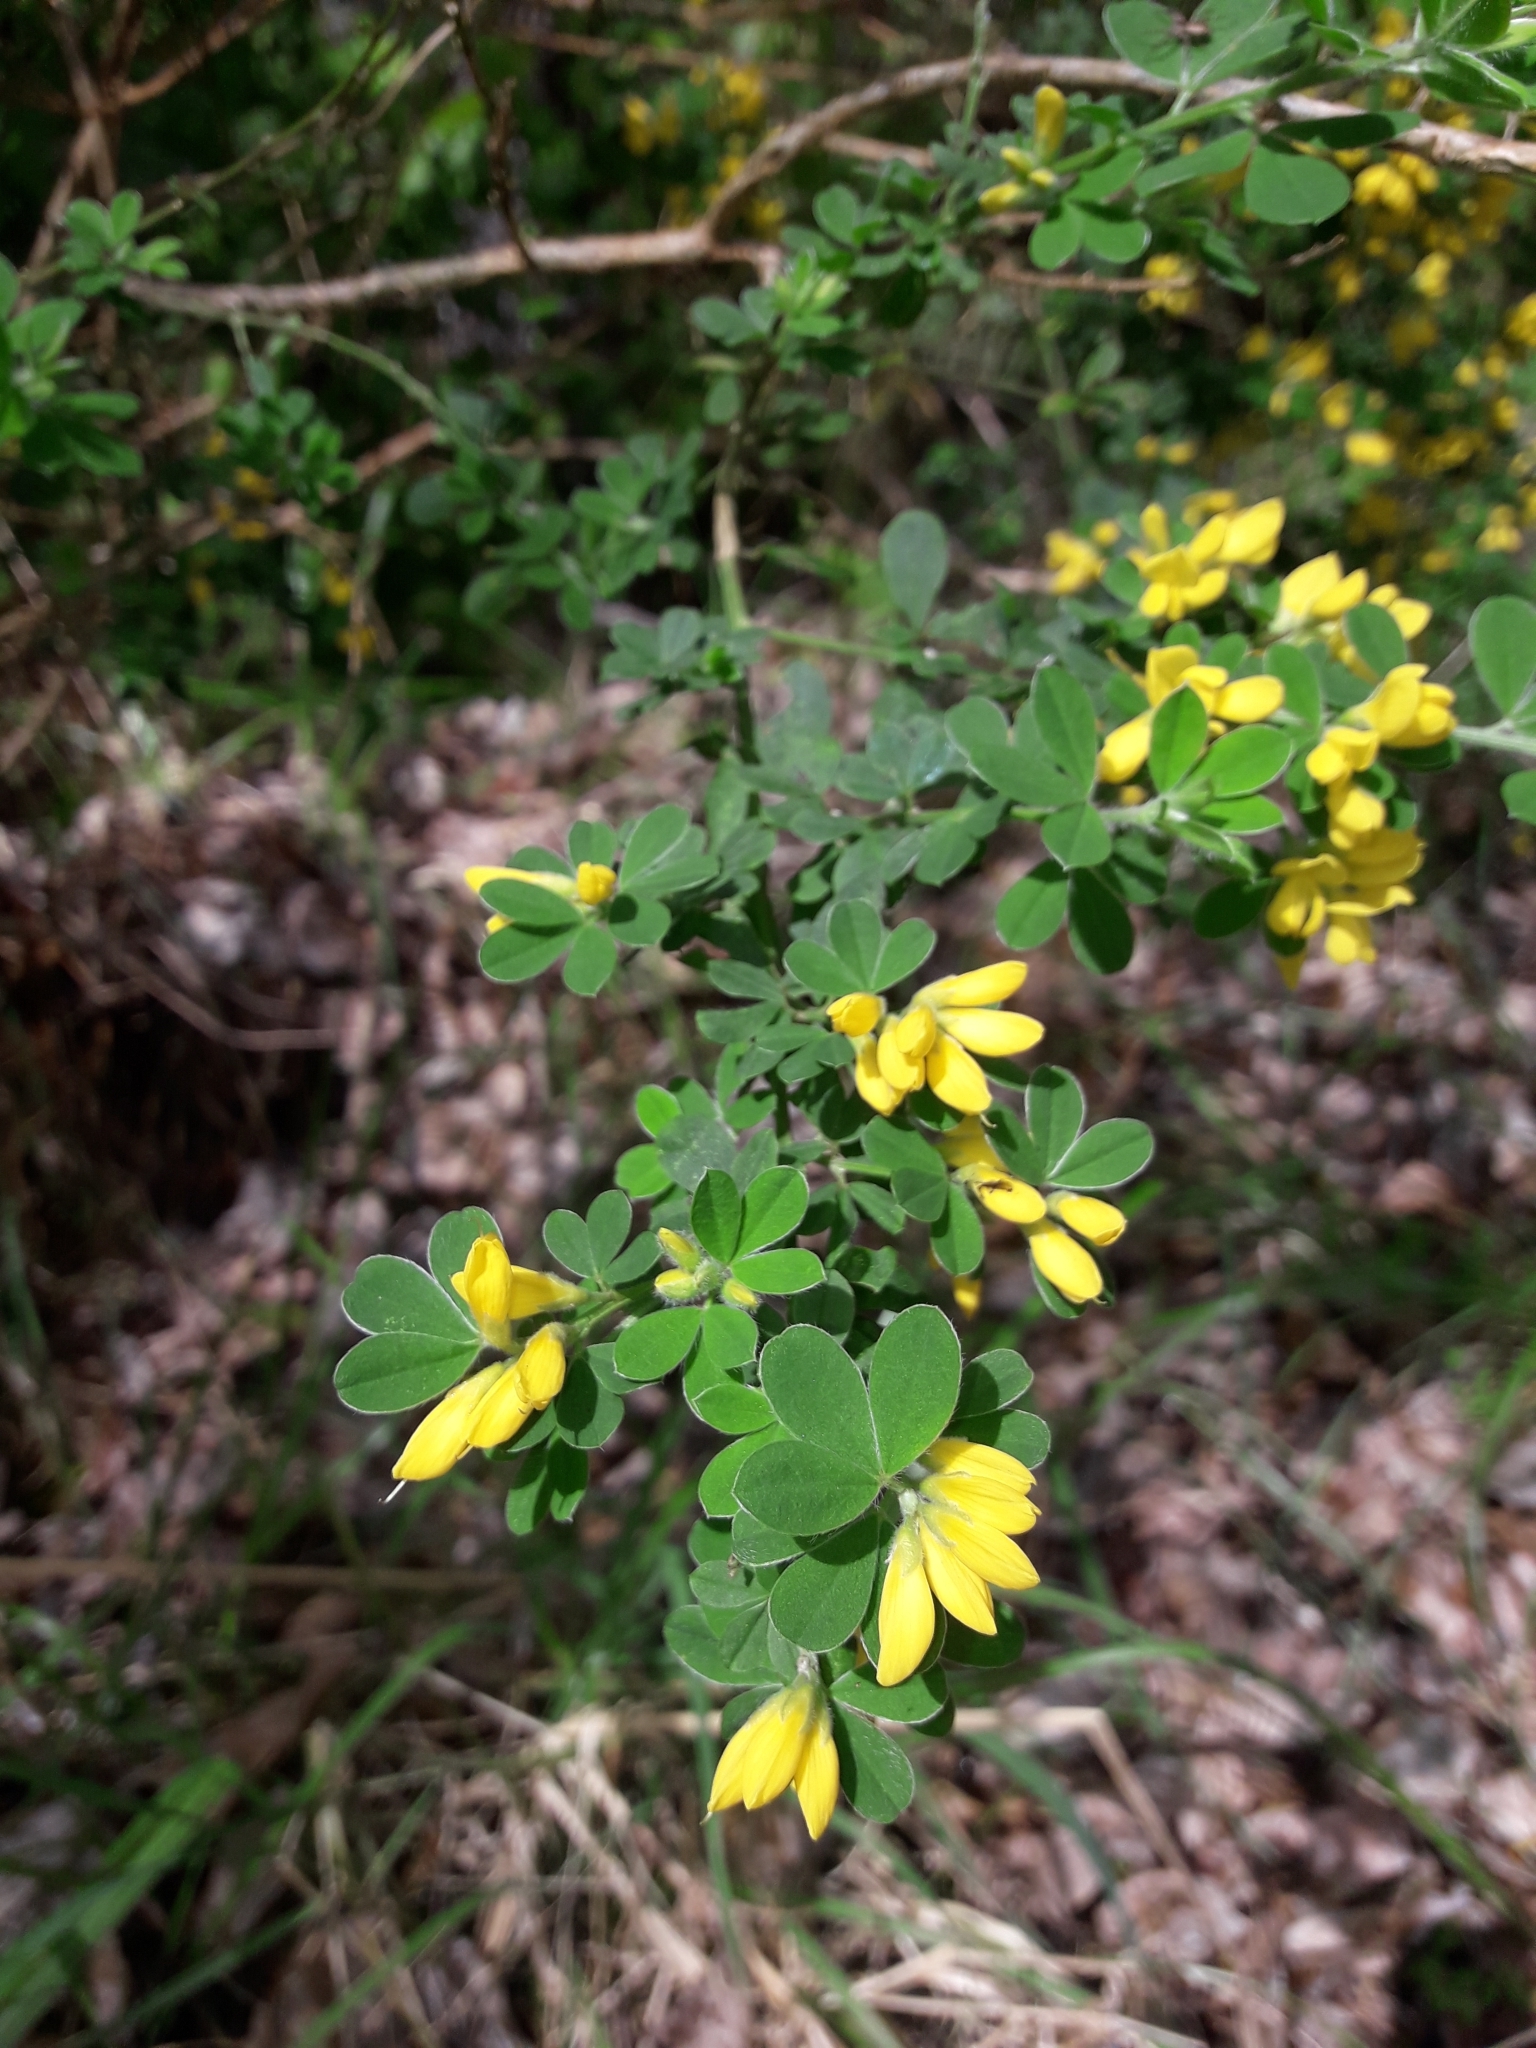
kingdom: Plantae
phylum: Tracheophyta
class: Magnoliopsida
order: Fabales
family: Fabaceae
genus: Genista
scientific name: Genista monspessulana
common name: Montpellier broom
